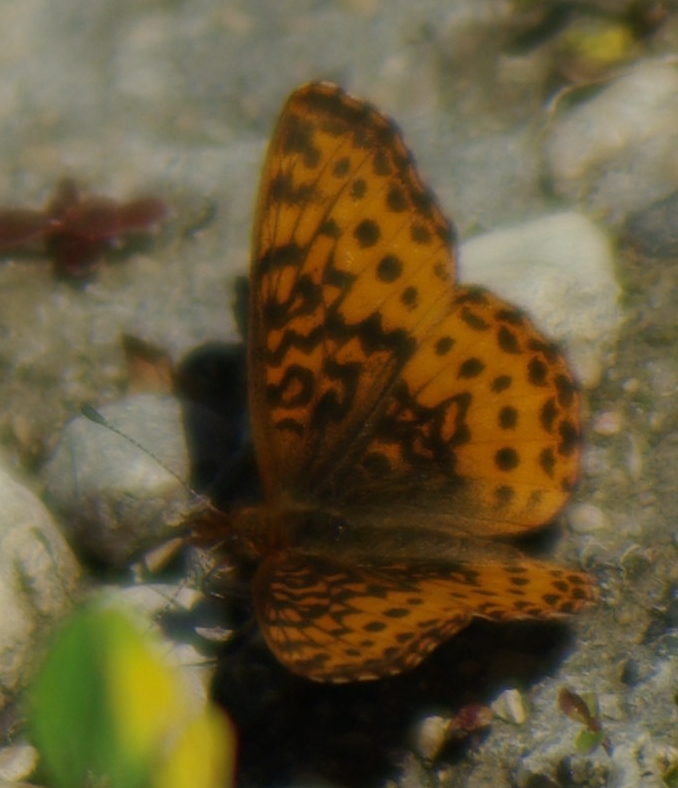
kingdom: Animalia
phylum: Arthropoda
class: Insecta
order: Lepidoptera
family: Nymphalidae
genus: Clossiana
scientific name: Clossiana toddi
